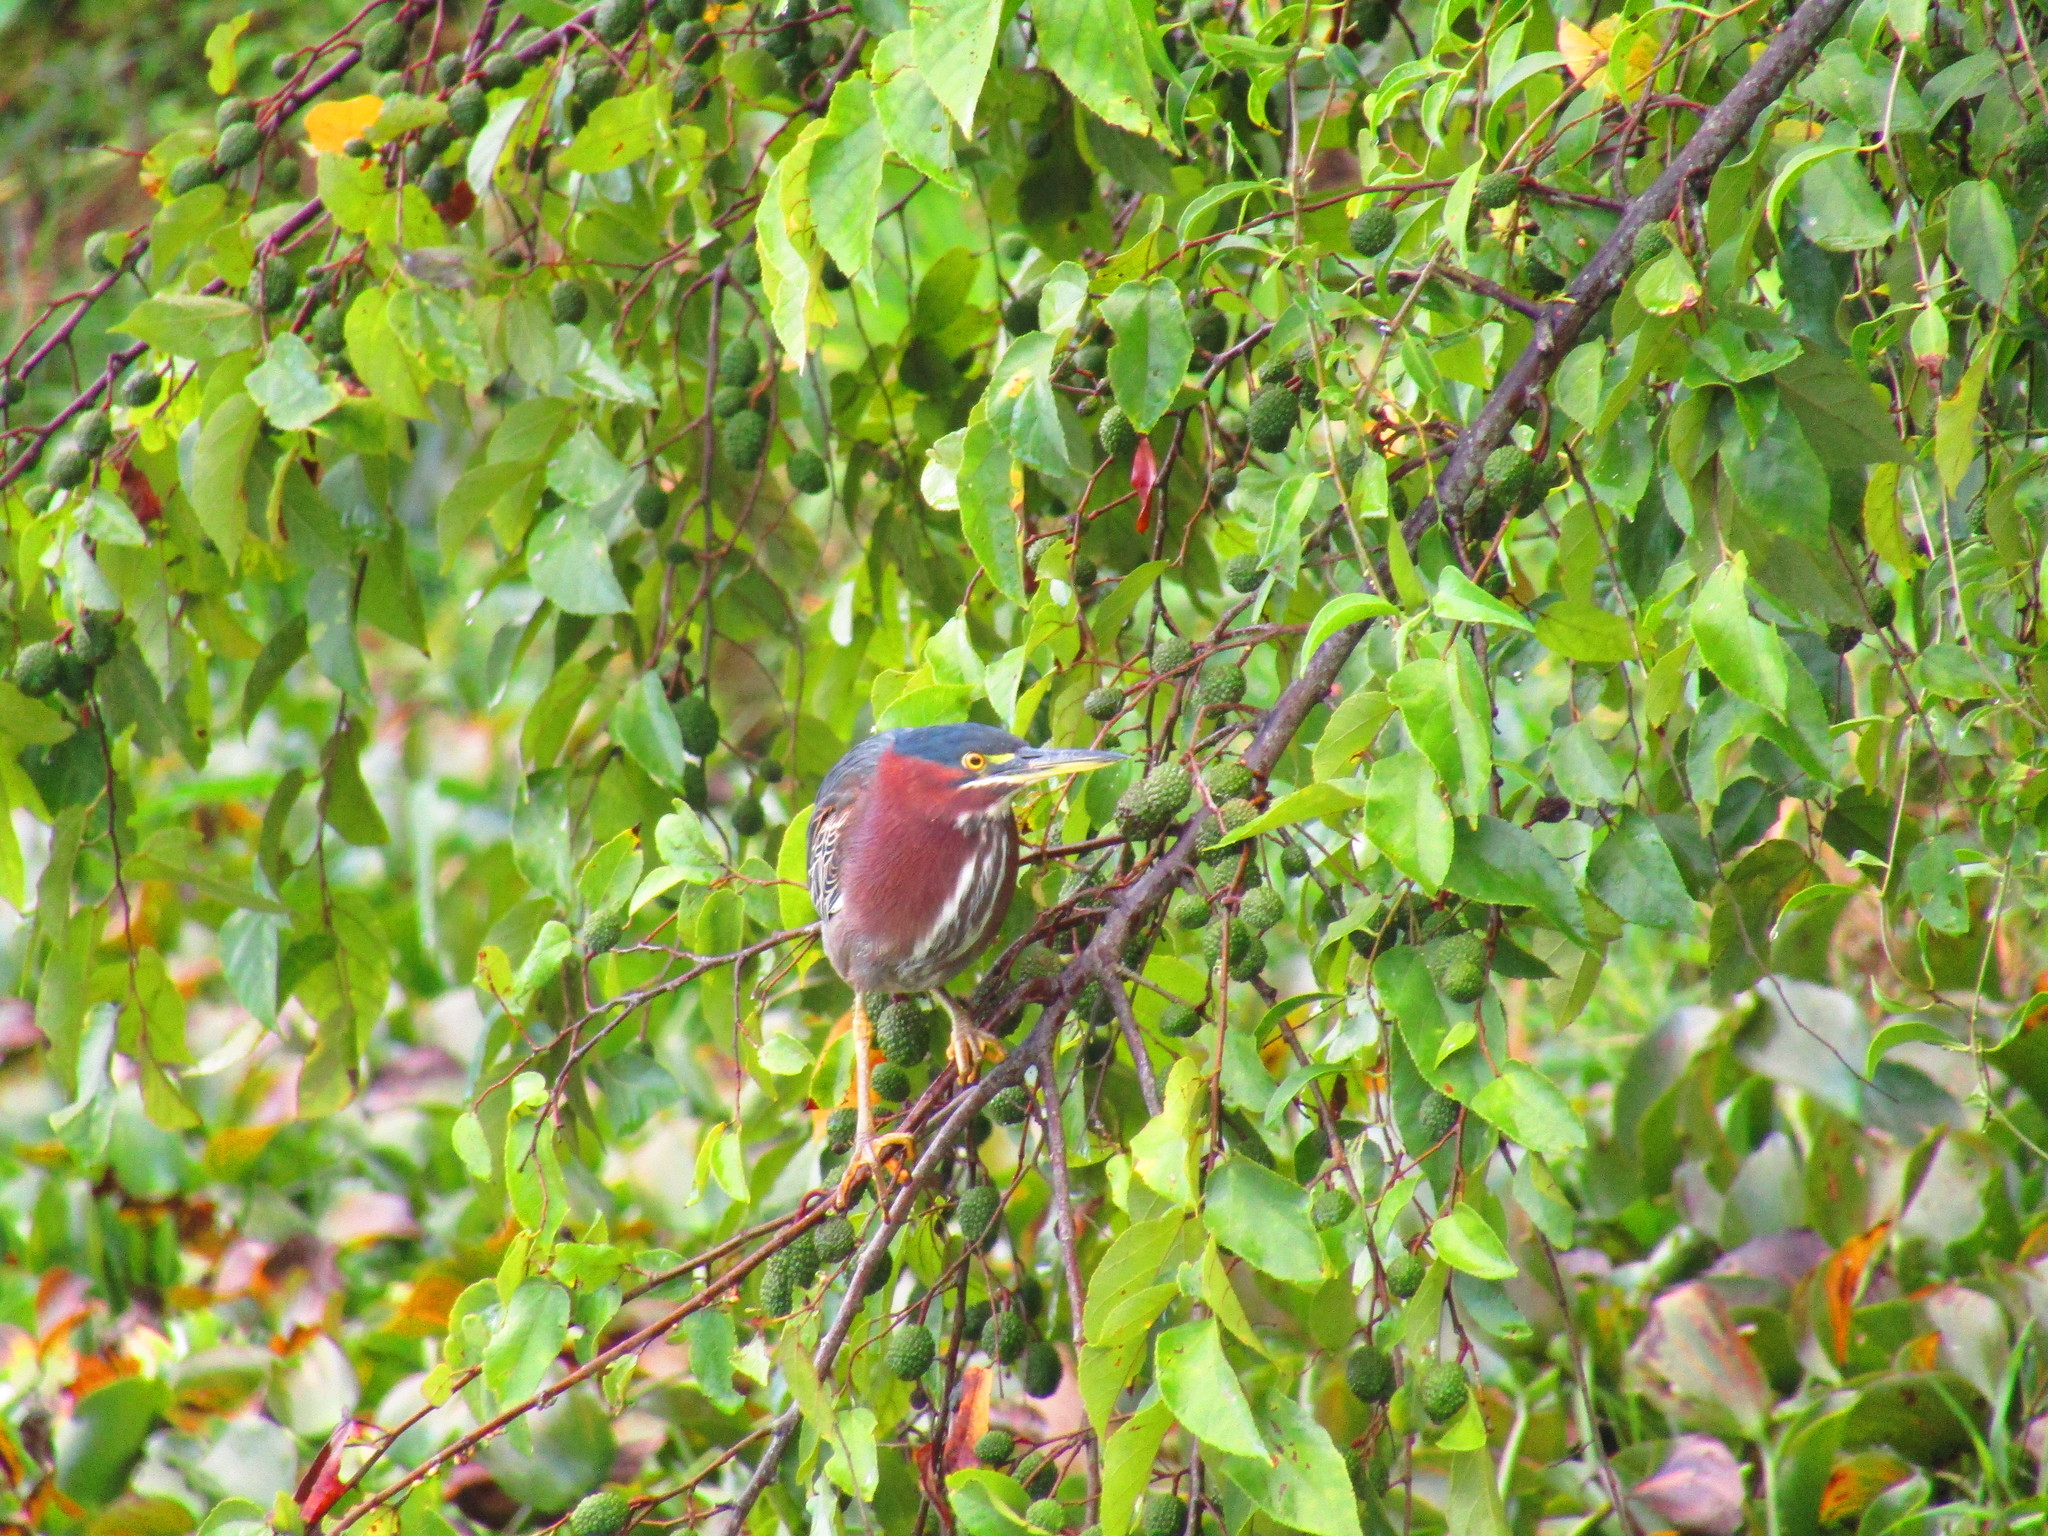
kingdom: Animalia
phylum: Chordata
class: Aves
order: Pelecaniformes
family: Ardeidae
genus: Butorides
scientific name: Butorides virescens
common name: Green heron
